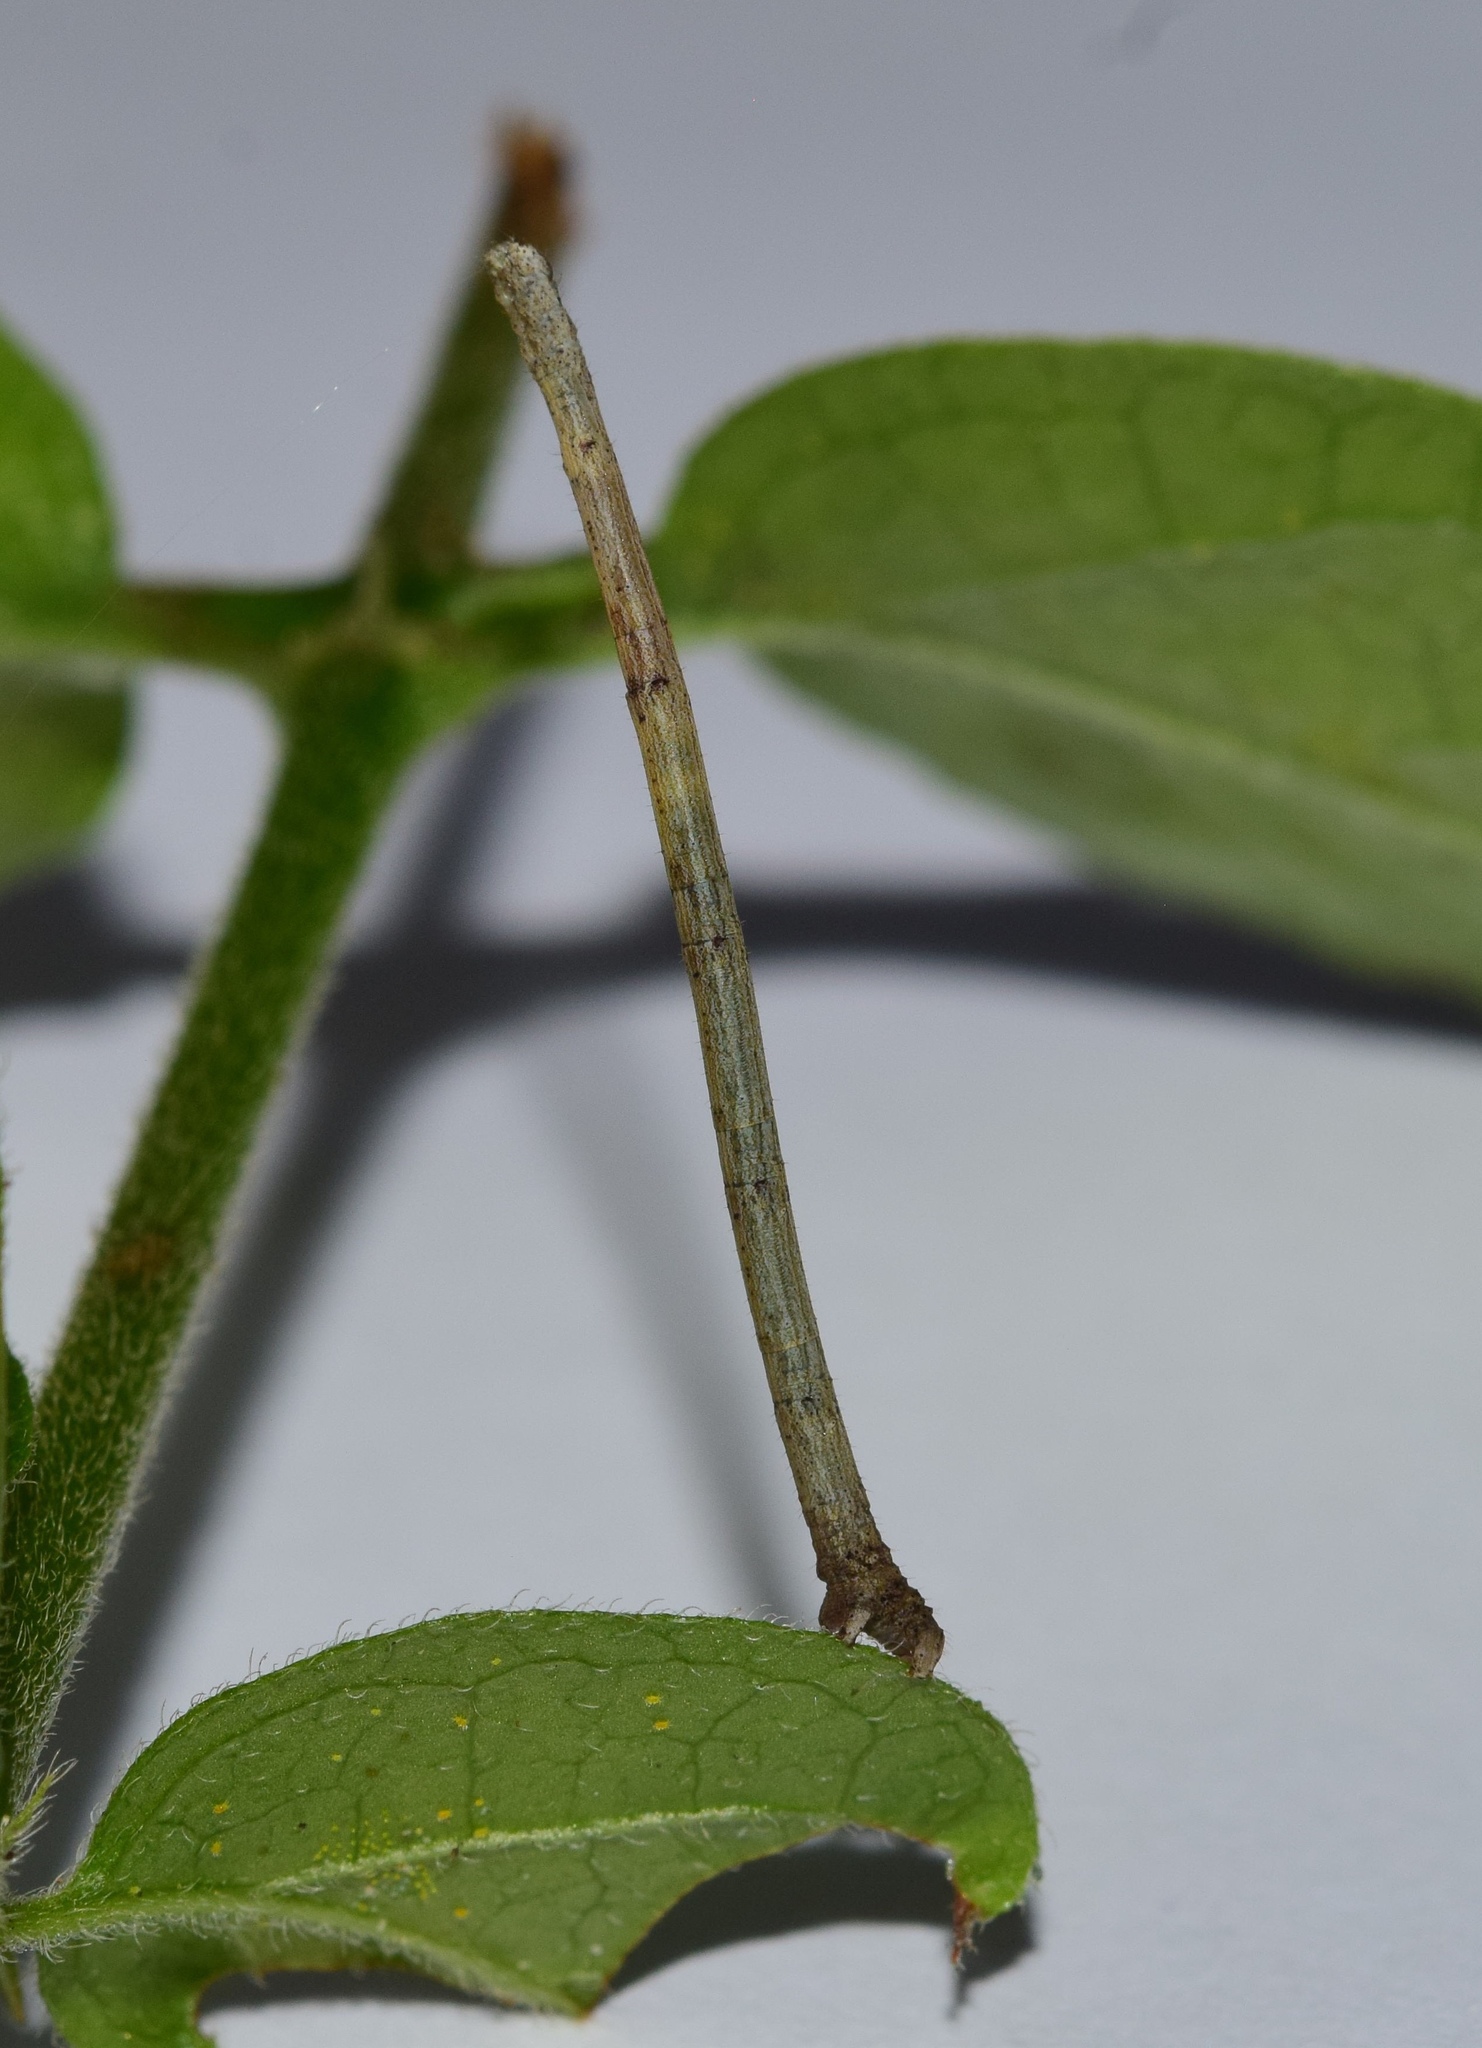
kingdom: Animalia
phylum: Arthropoda
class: Insecta
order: Lepidoptera
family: Geometridae
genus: Epicosymbia
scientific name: Epicosymbia nitidata
